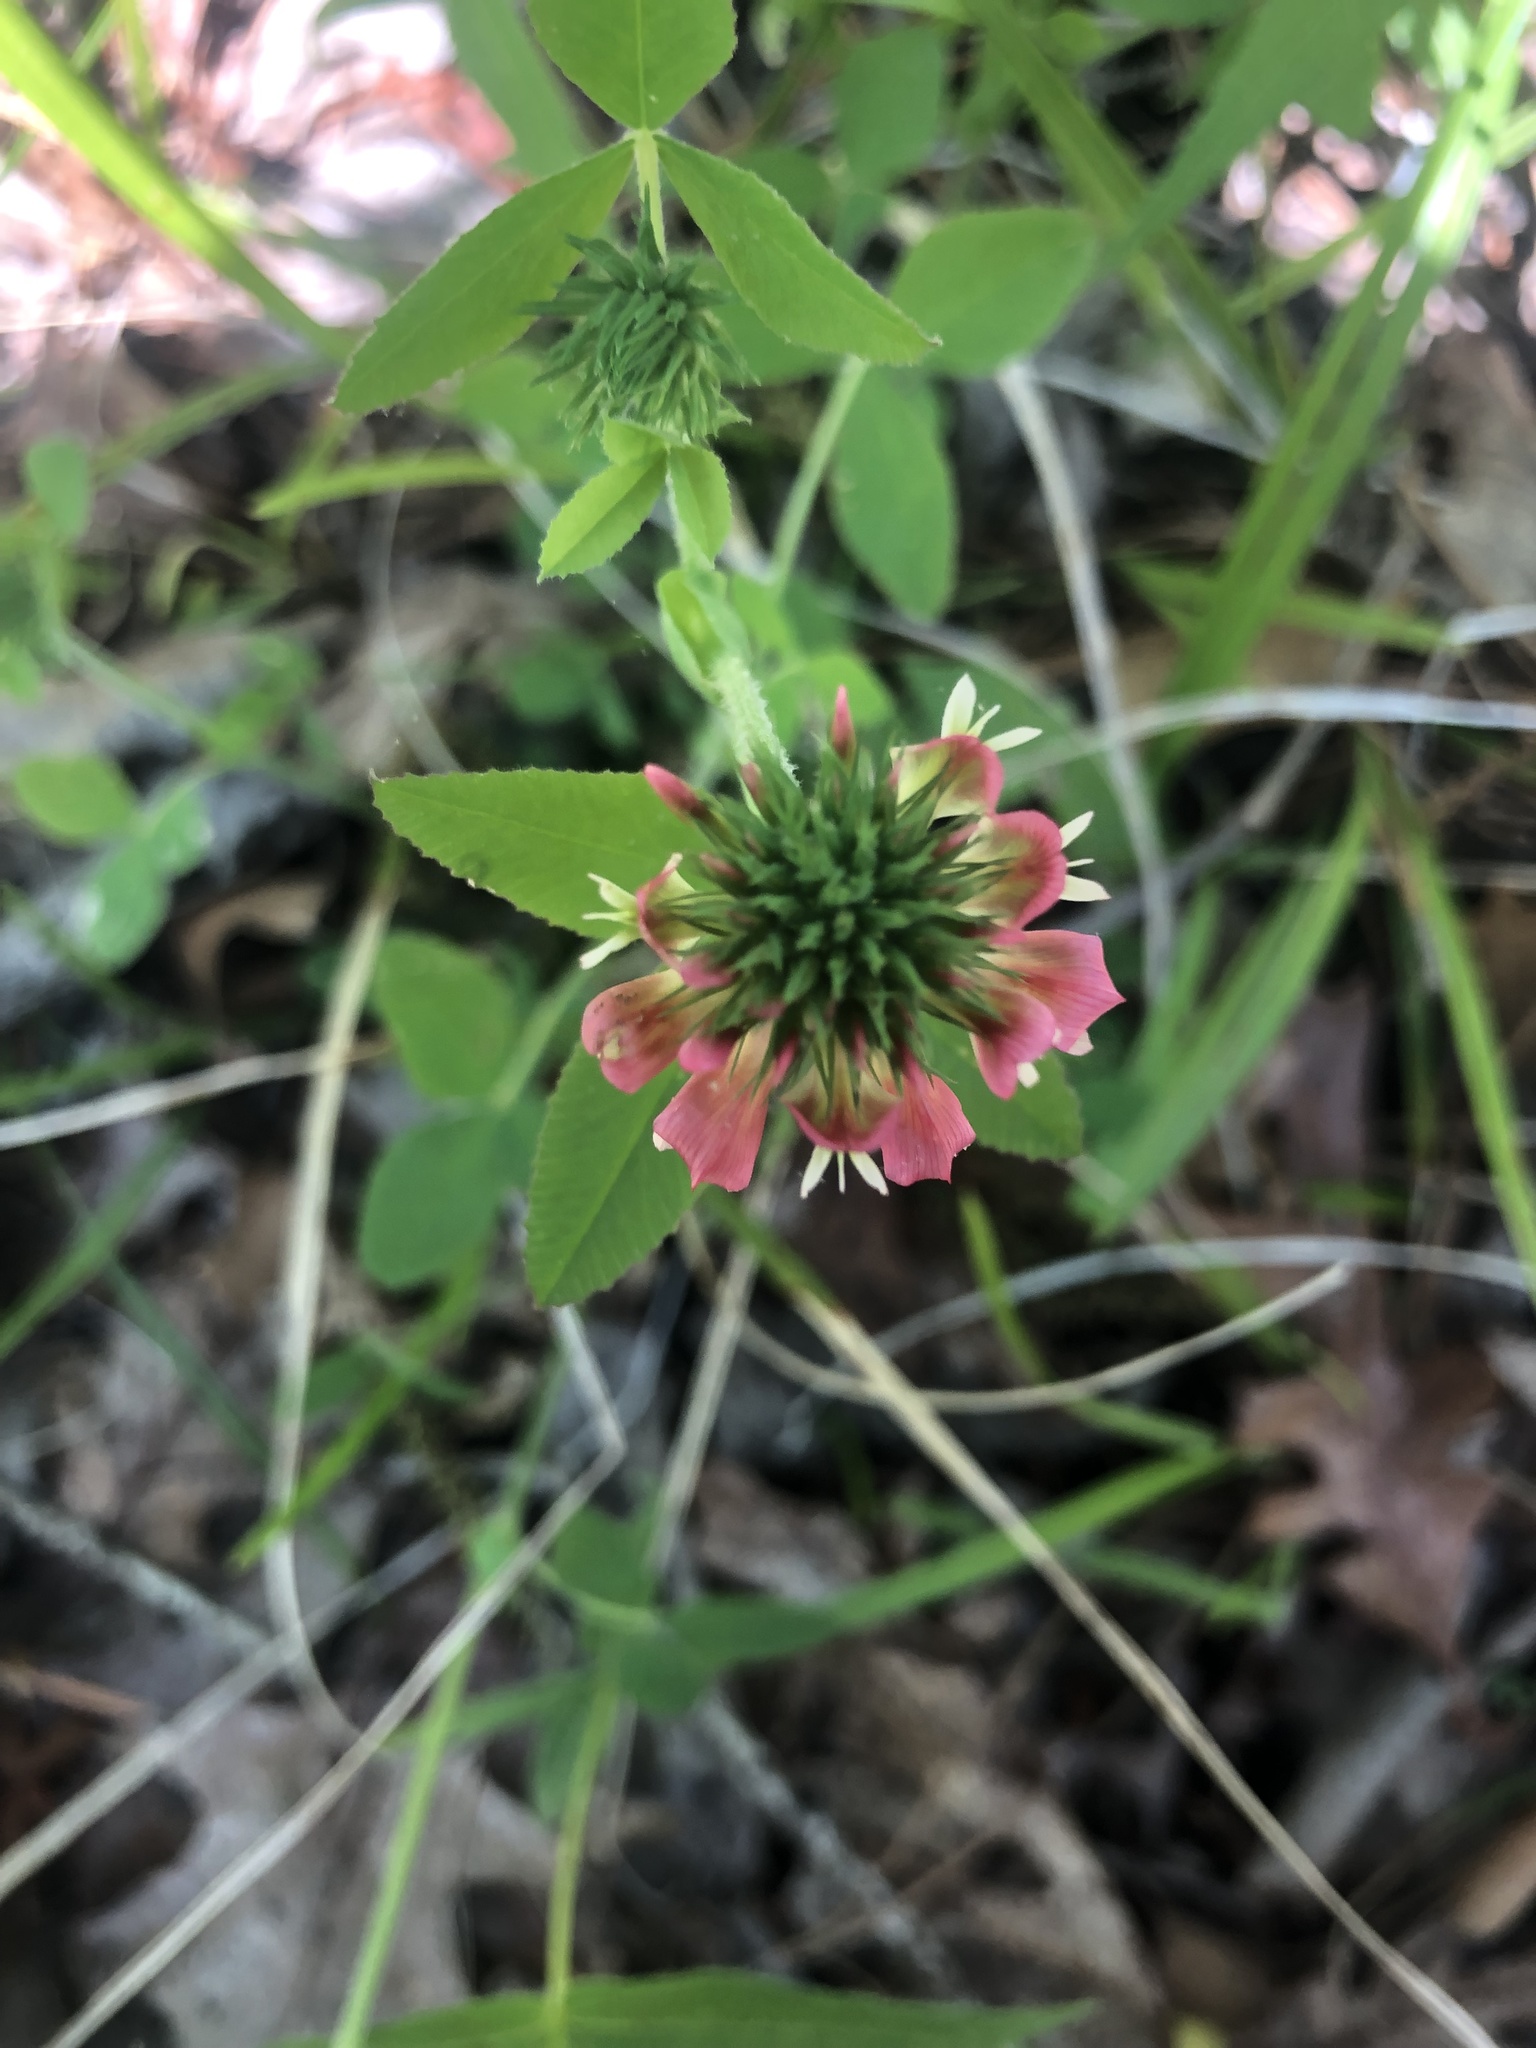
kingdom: Plantae
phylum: Tracheophyta
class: Magnoliopsida
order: Fabales
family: Fabaceae
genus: Trifolium
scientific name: Trifolium reflexum
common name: Buffalo clover
